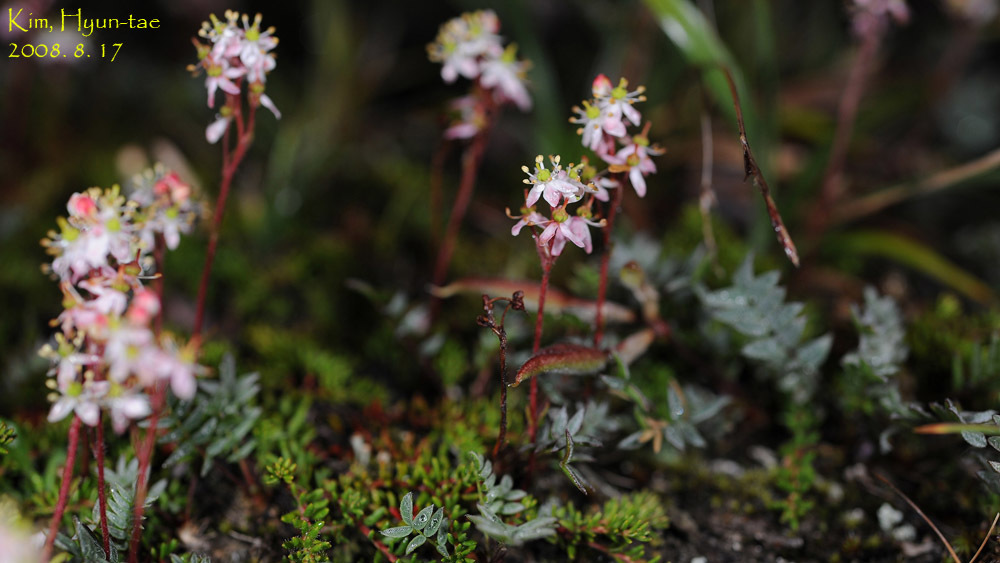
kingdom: Plantae
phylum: Tracheophyta
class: Magnoliopsida
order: Ericales
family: Ericaceae
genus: Bryanthus
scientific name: Bryanthus musciformis
